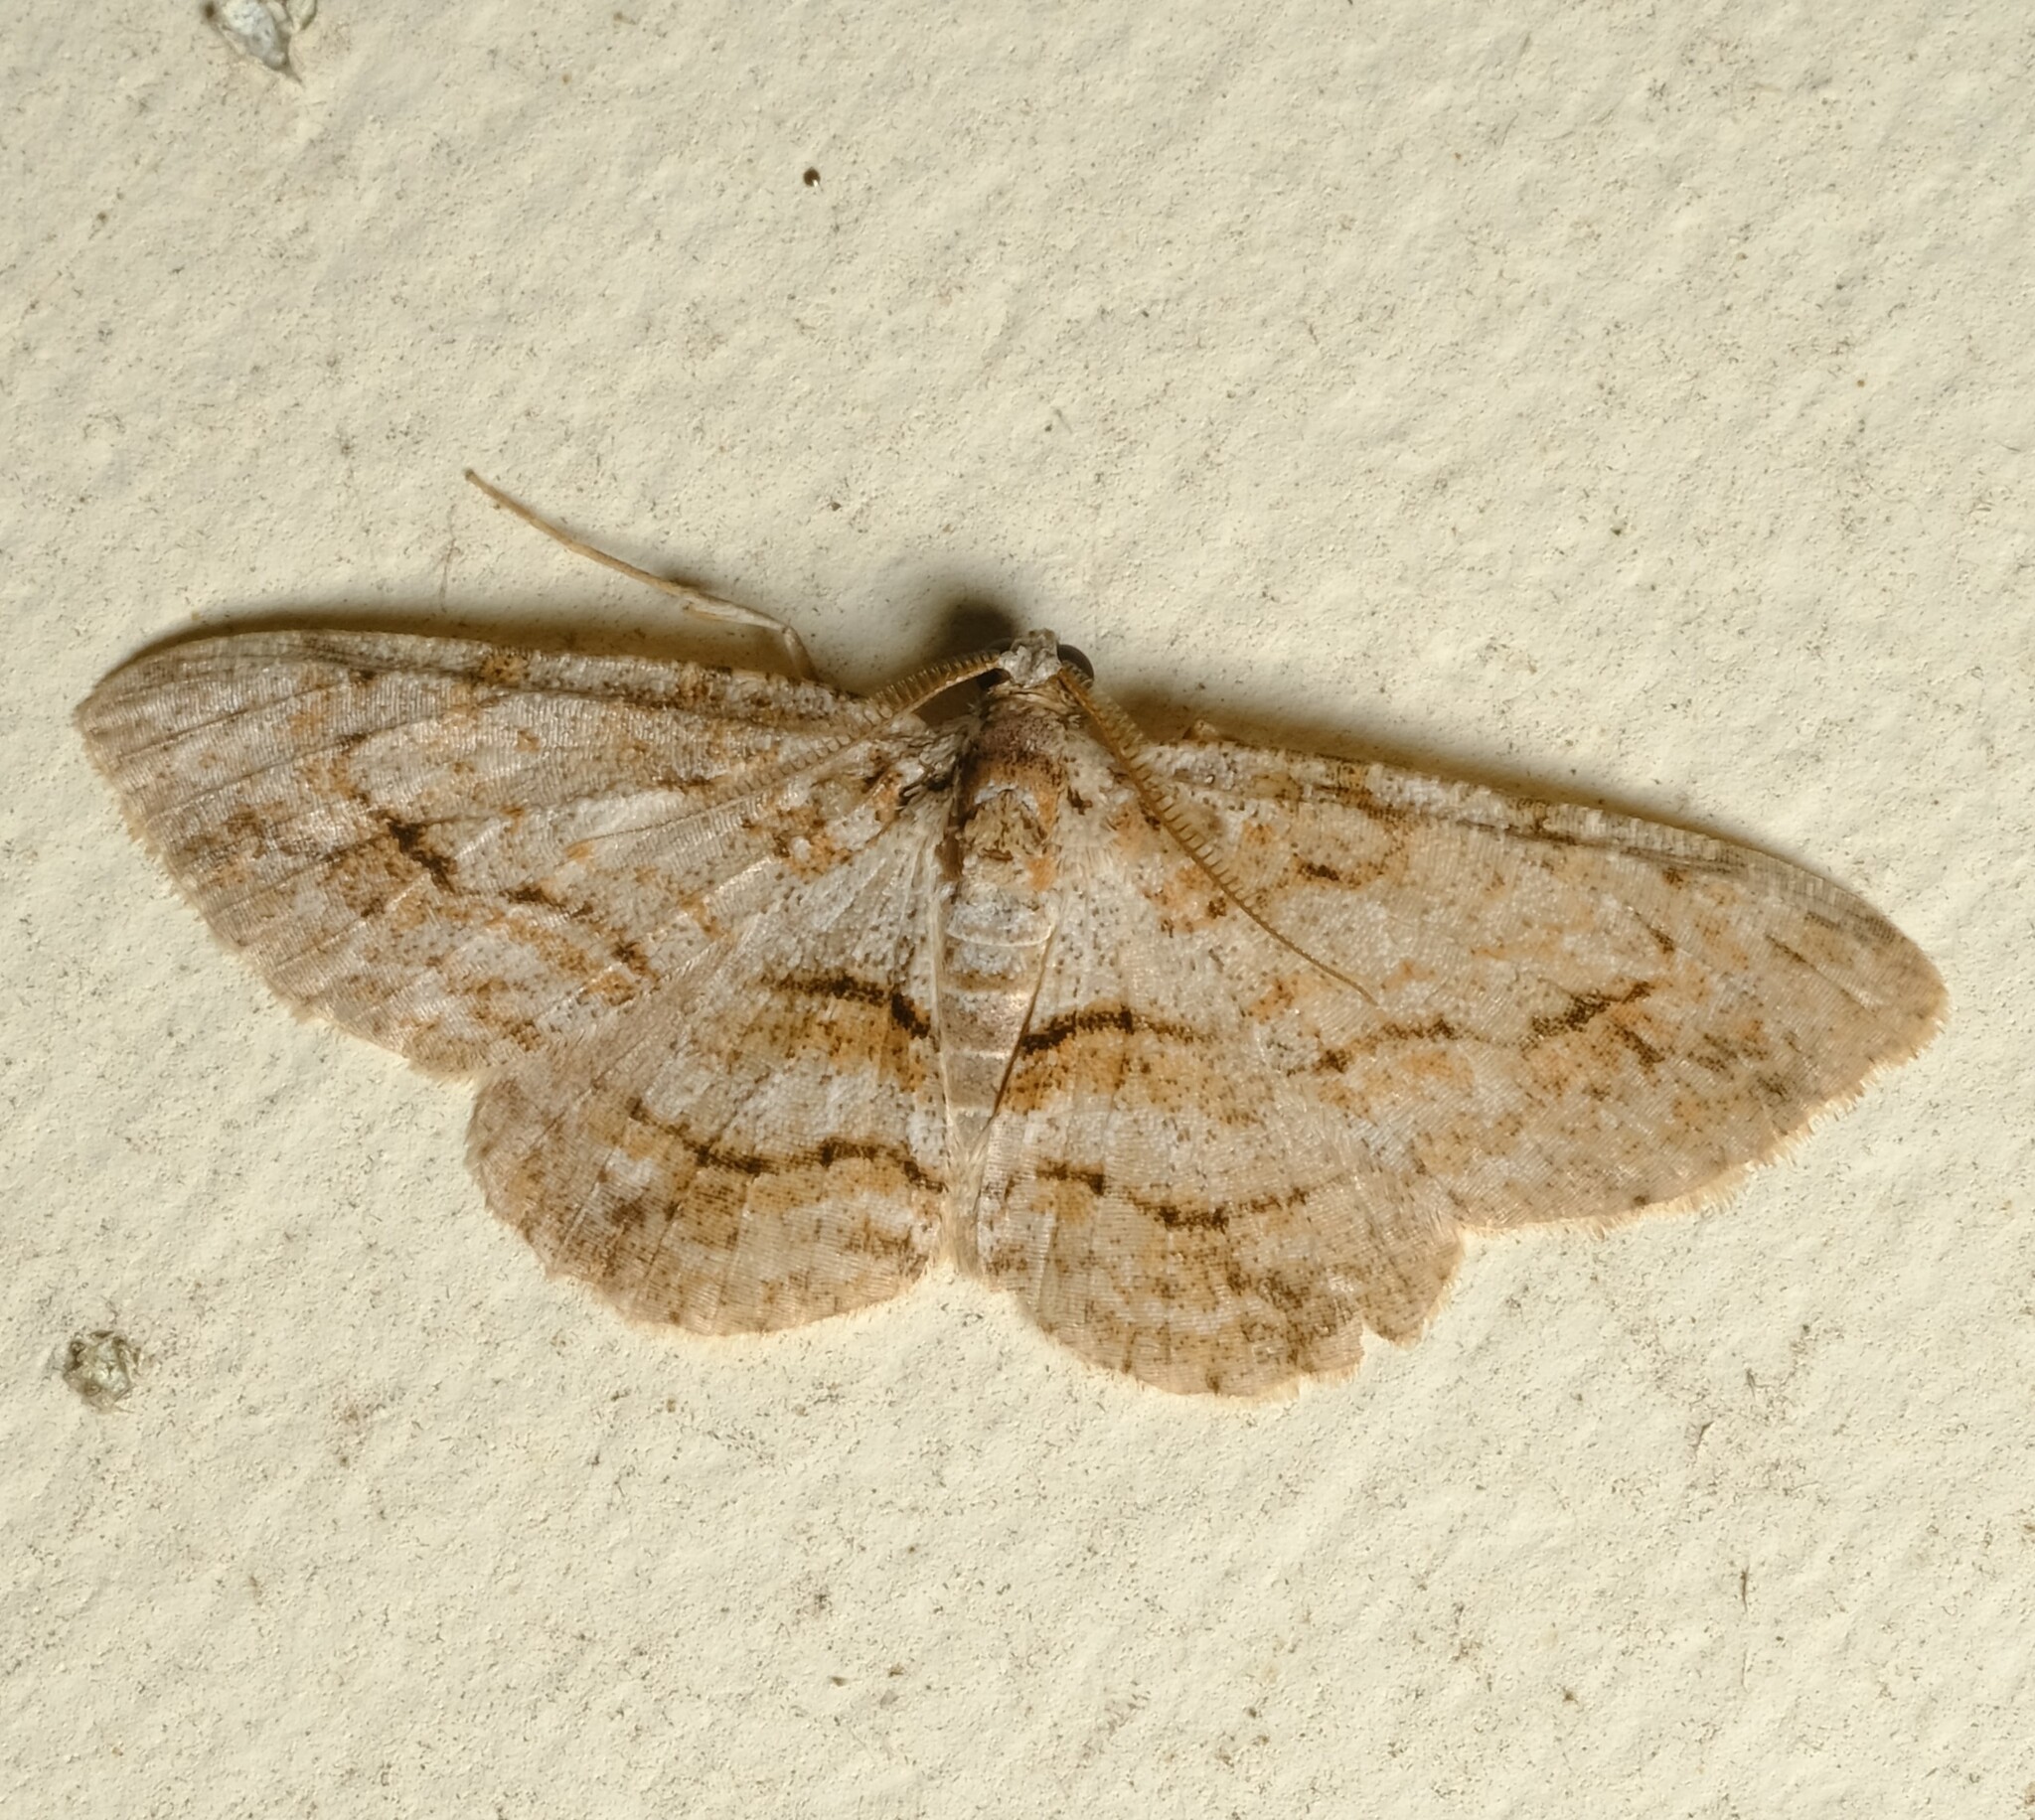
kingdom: Animalia
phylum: Arthropoda
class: Insecta
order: Lepidoptera
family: Geometridae
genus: Didymoctenia
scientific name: Didymoctenia exsuperata
